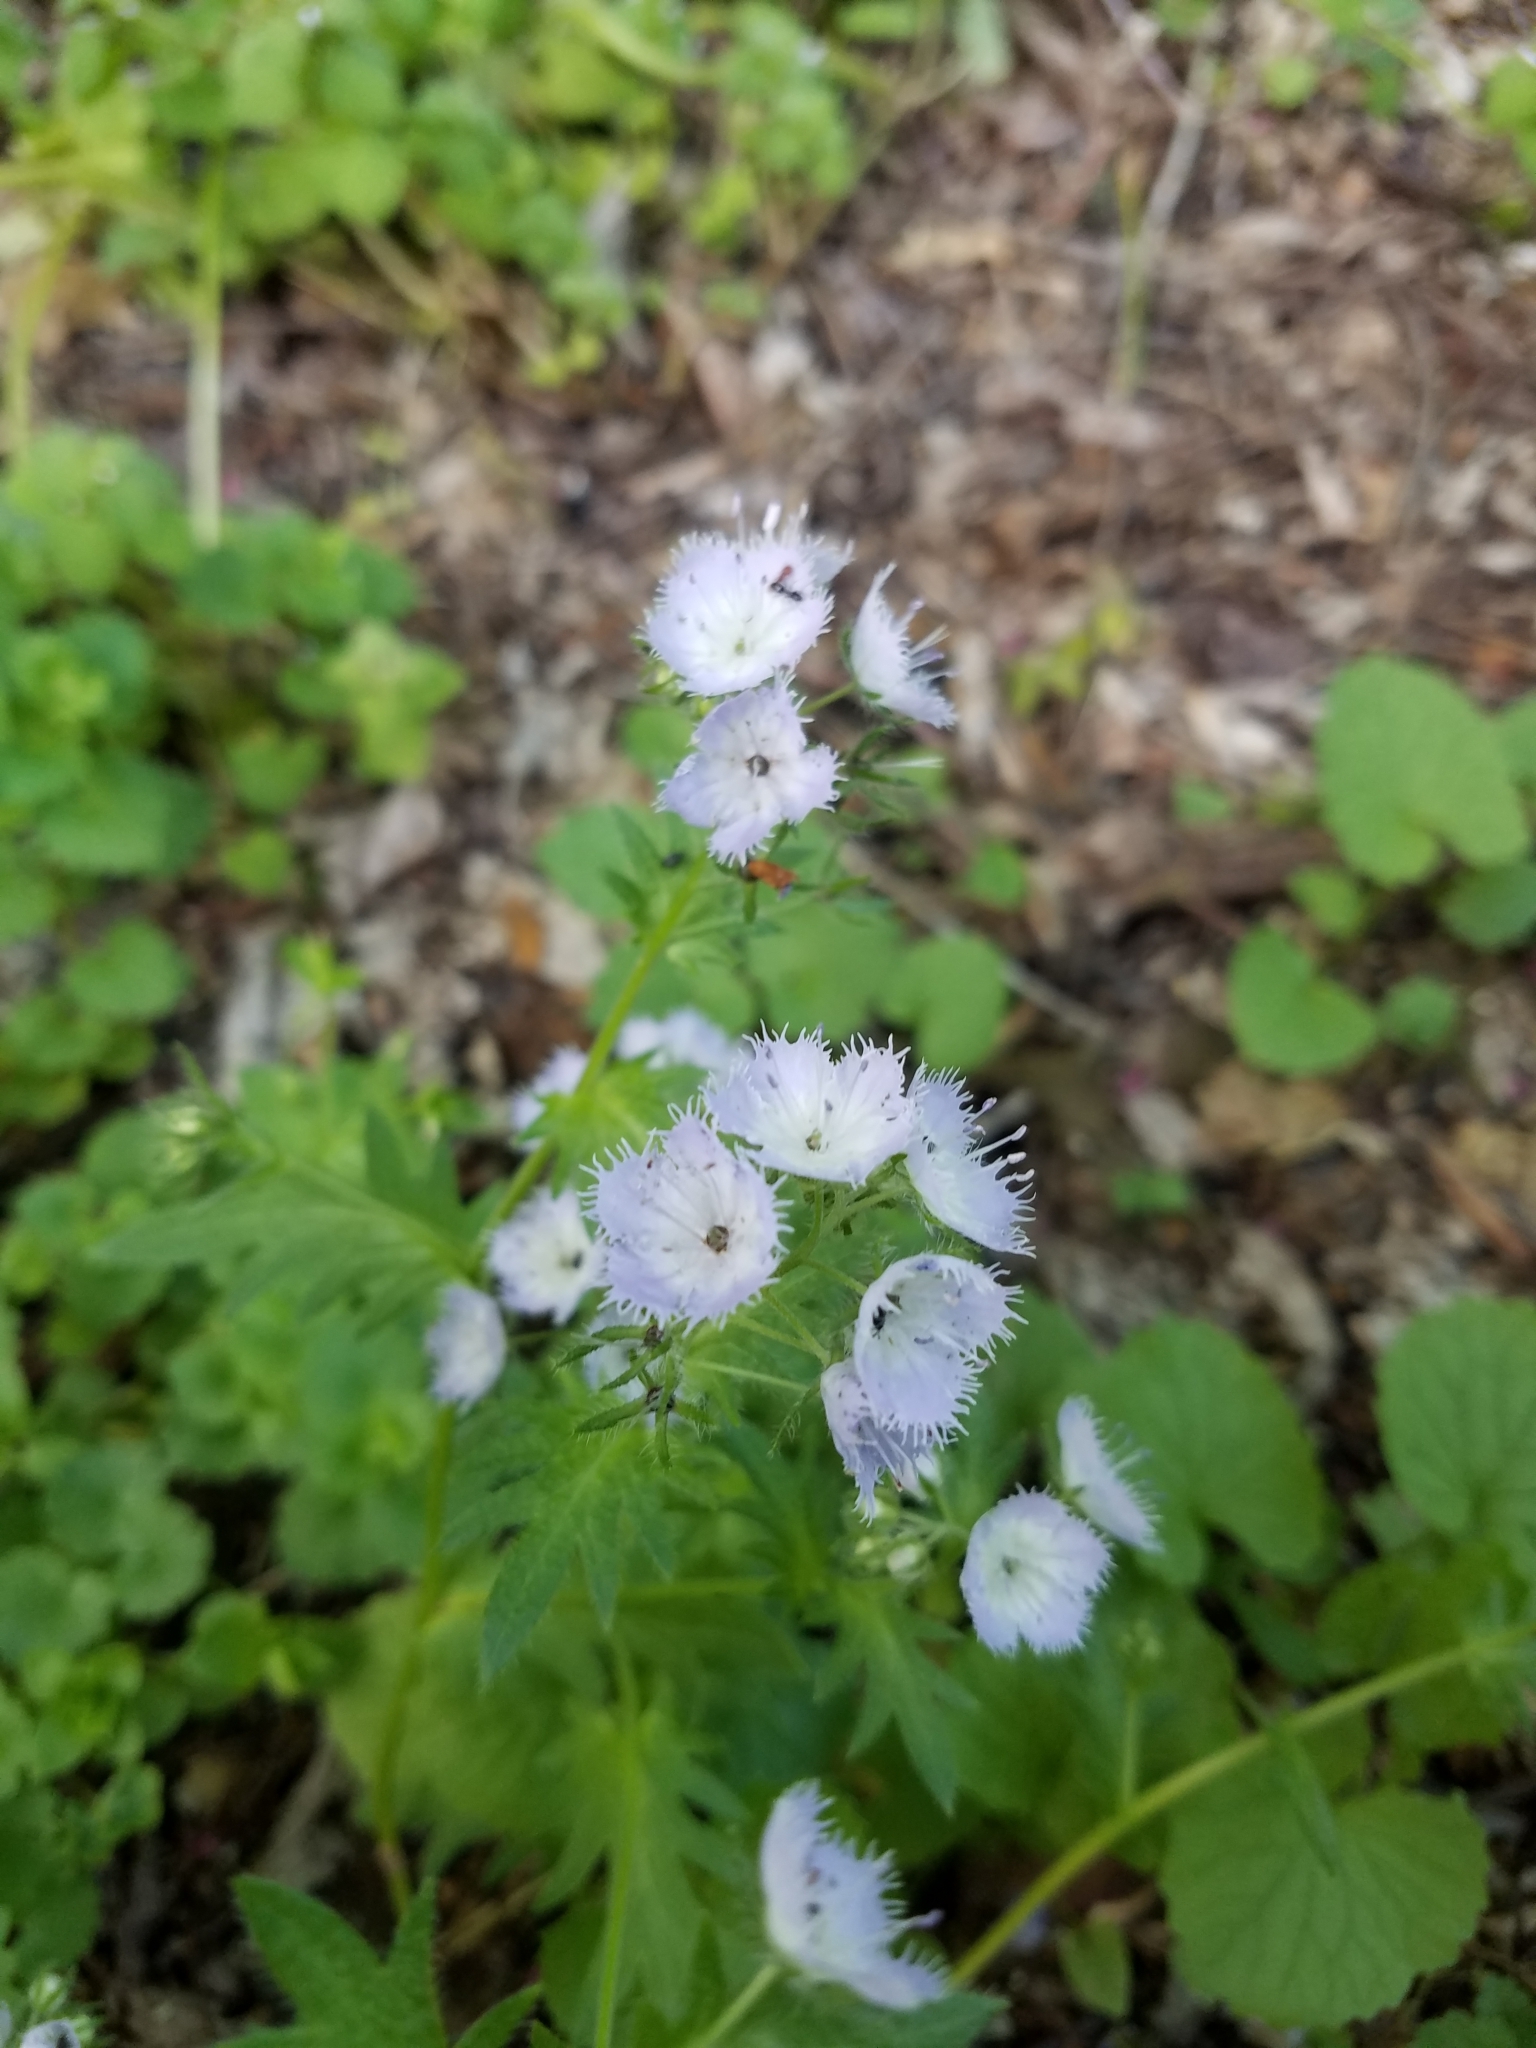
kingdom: Plantae
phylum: Tracheophyta
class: Magnoliopsida
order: Boraginales
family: Hydrophyllaceae
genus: Phacelia
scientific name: Phacelia purshii
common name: Miami-mist
